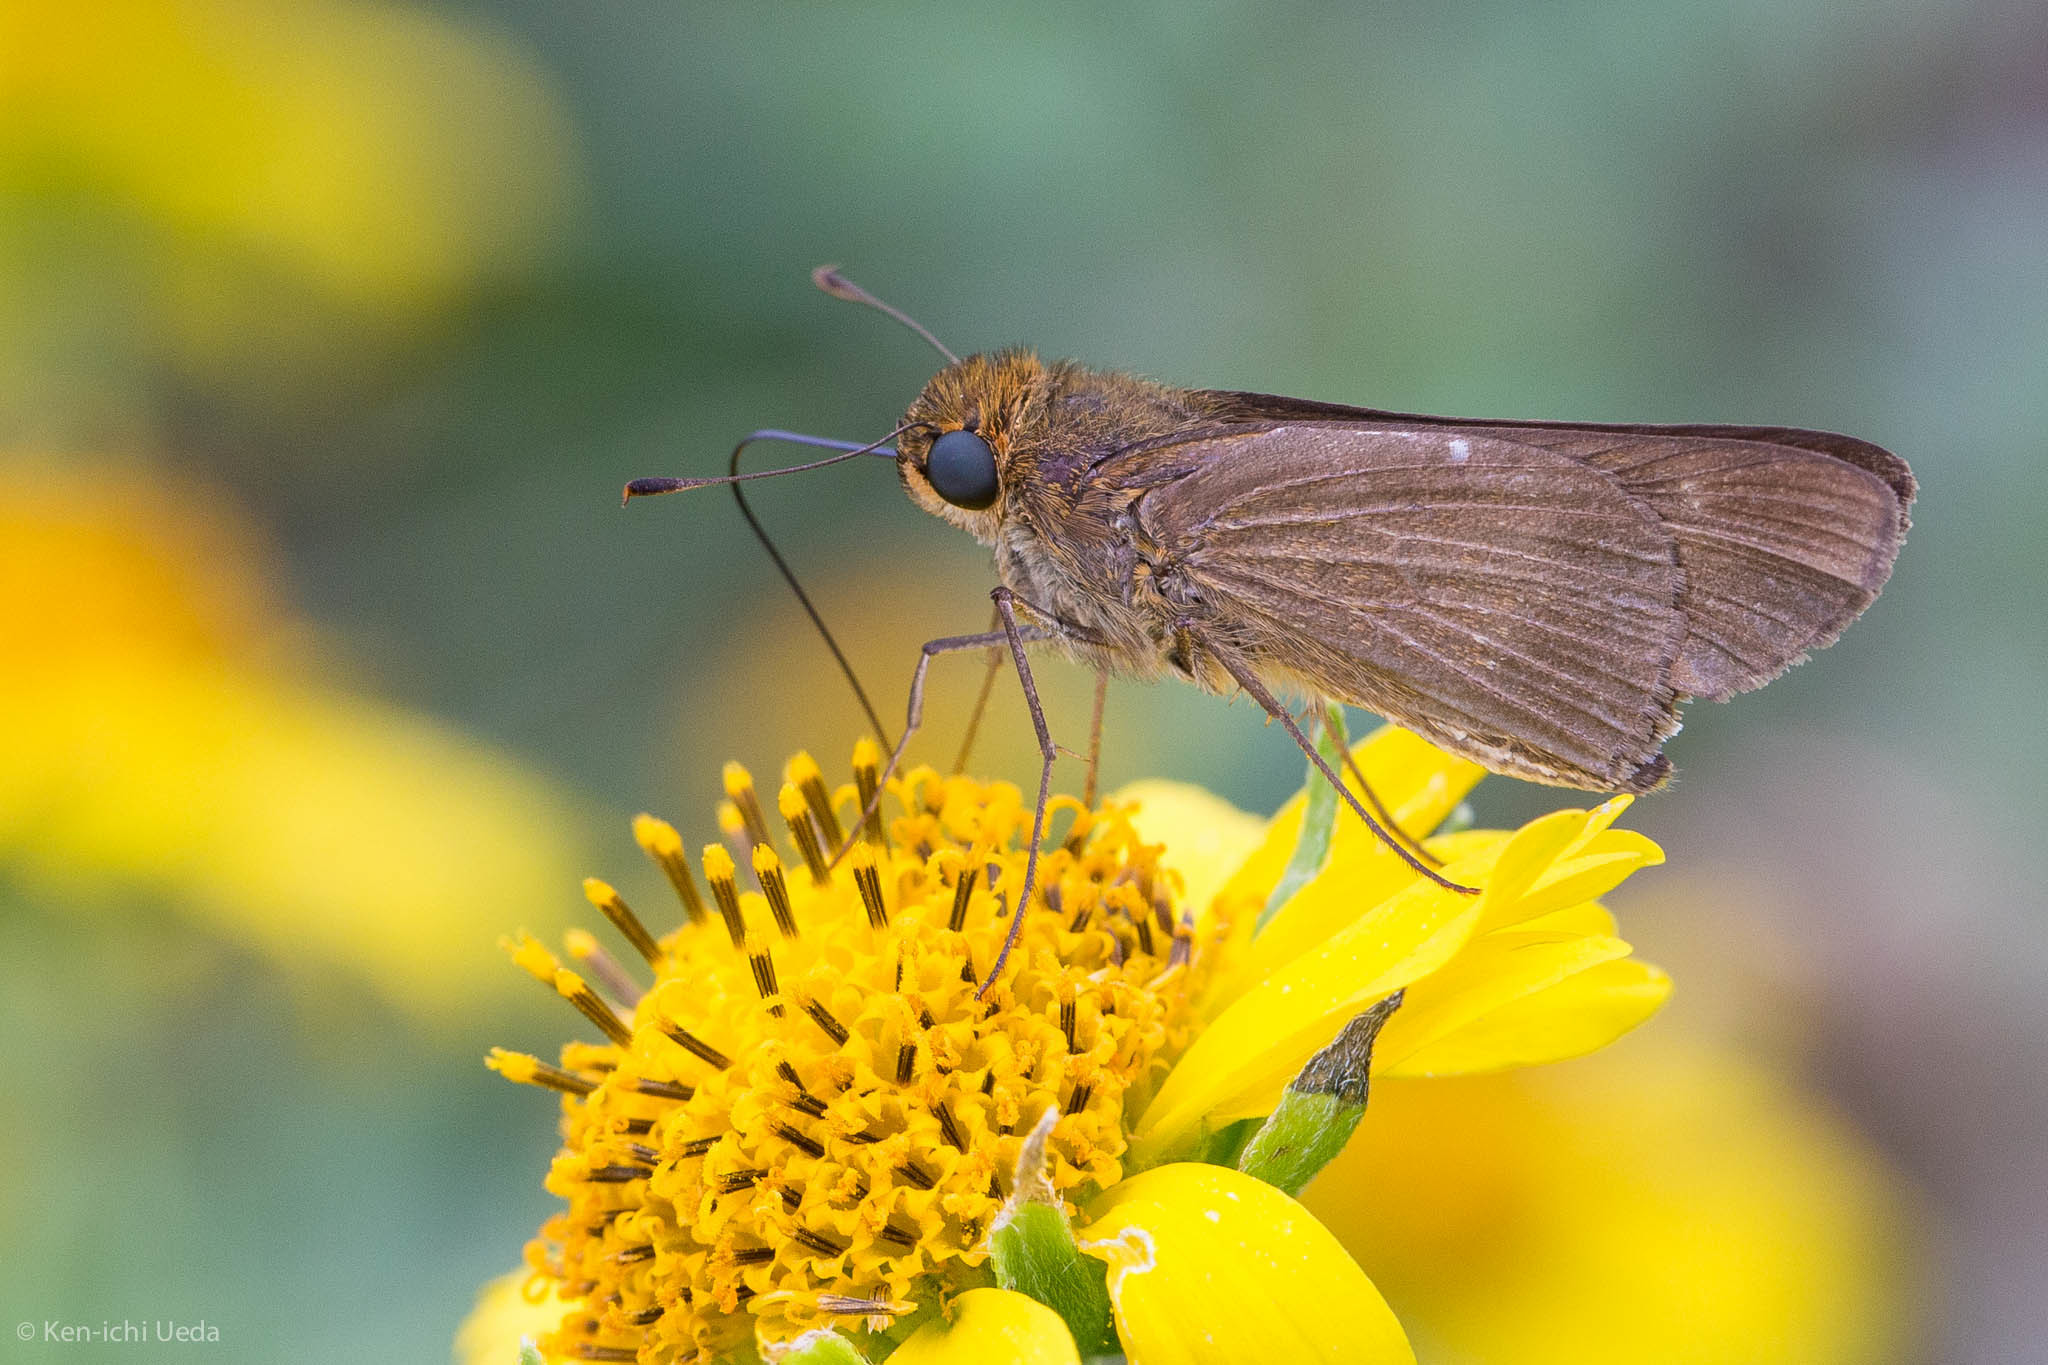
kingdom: Animalia
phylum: Arthropoda
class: Insecta
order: Lepidoptera
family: Hesperiidae
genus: Panoquina
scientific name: Panoquina ocola
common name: Ocola skipper
